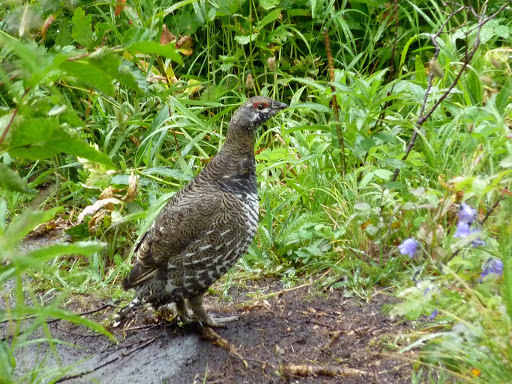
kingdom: Animalia
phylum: Chordata
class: Aves
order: Galliformes
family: Phasianidae
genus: Canachites
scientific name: Canachites canadensis
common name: Spruce grouse
